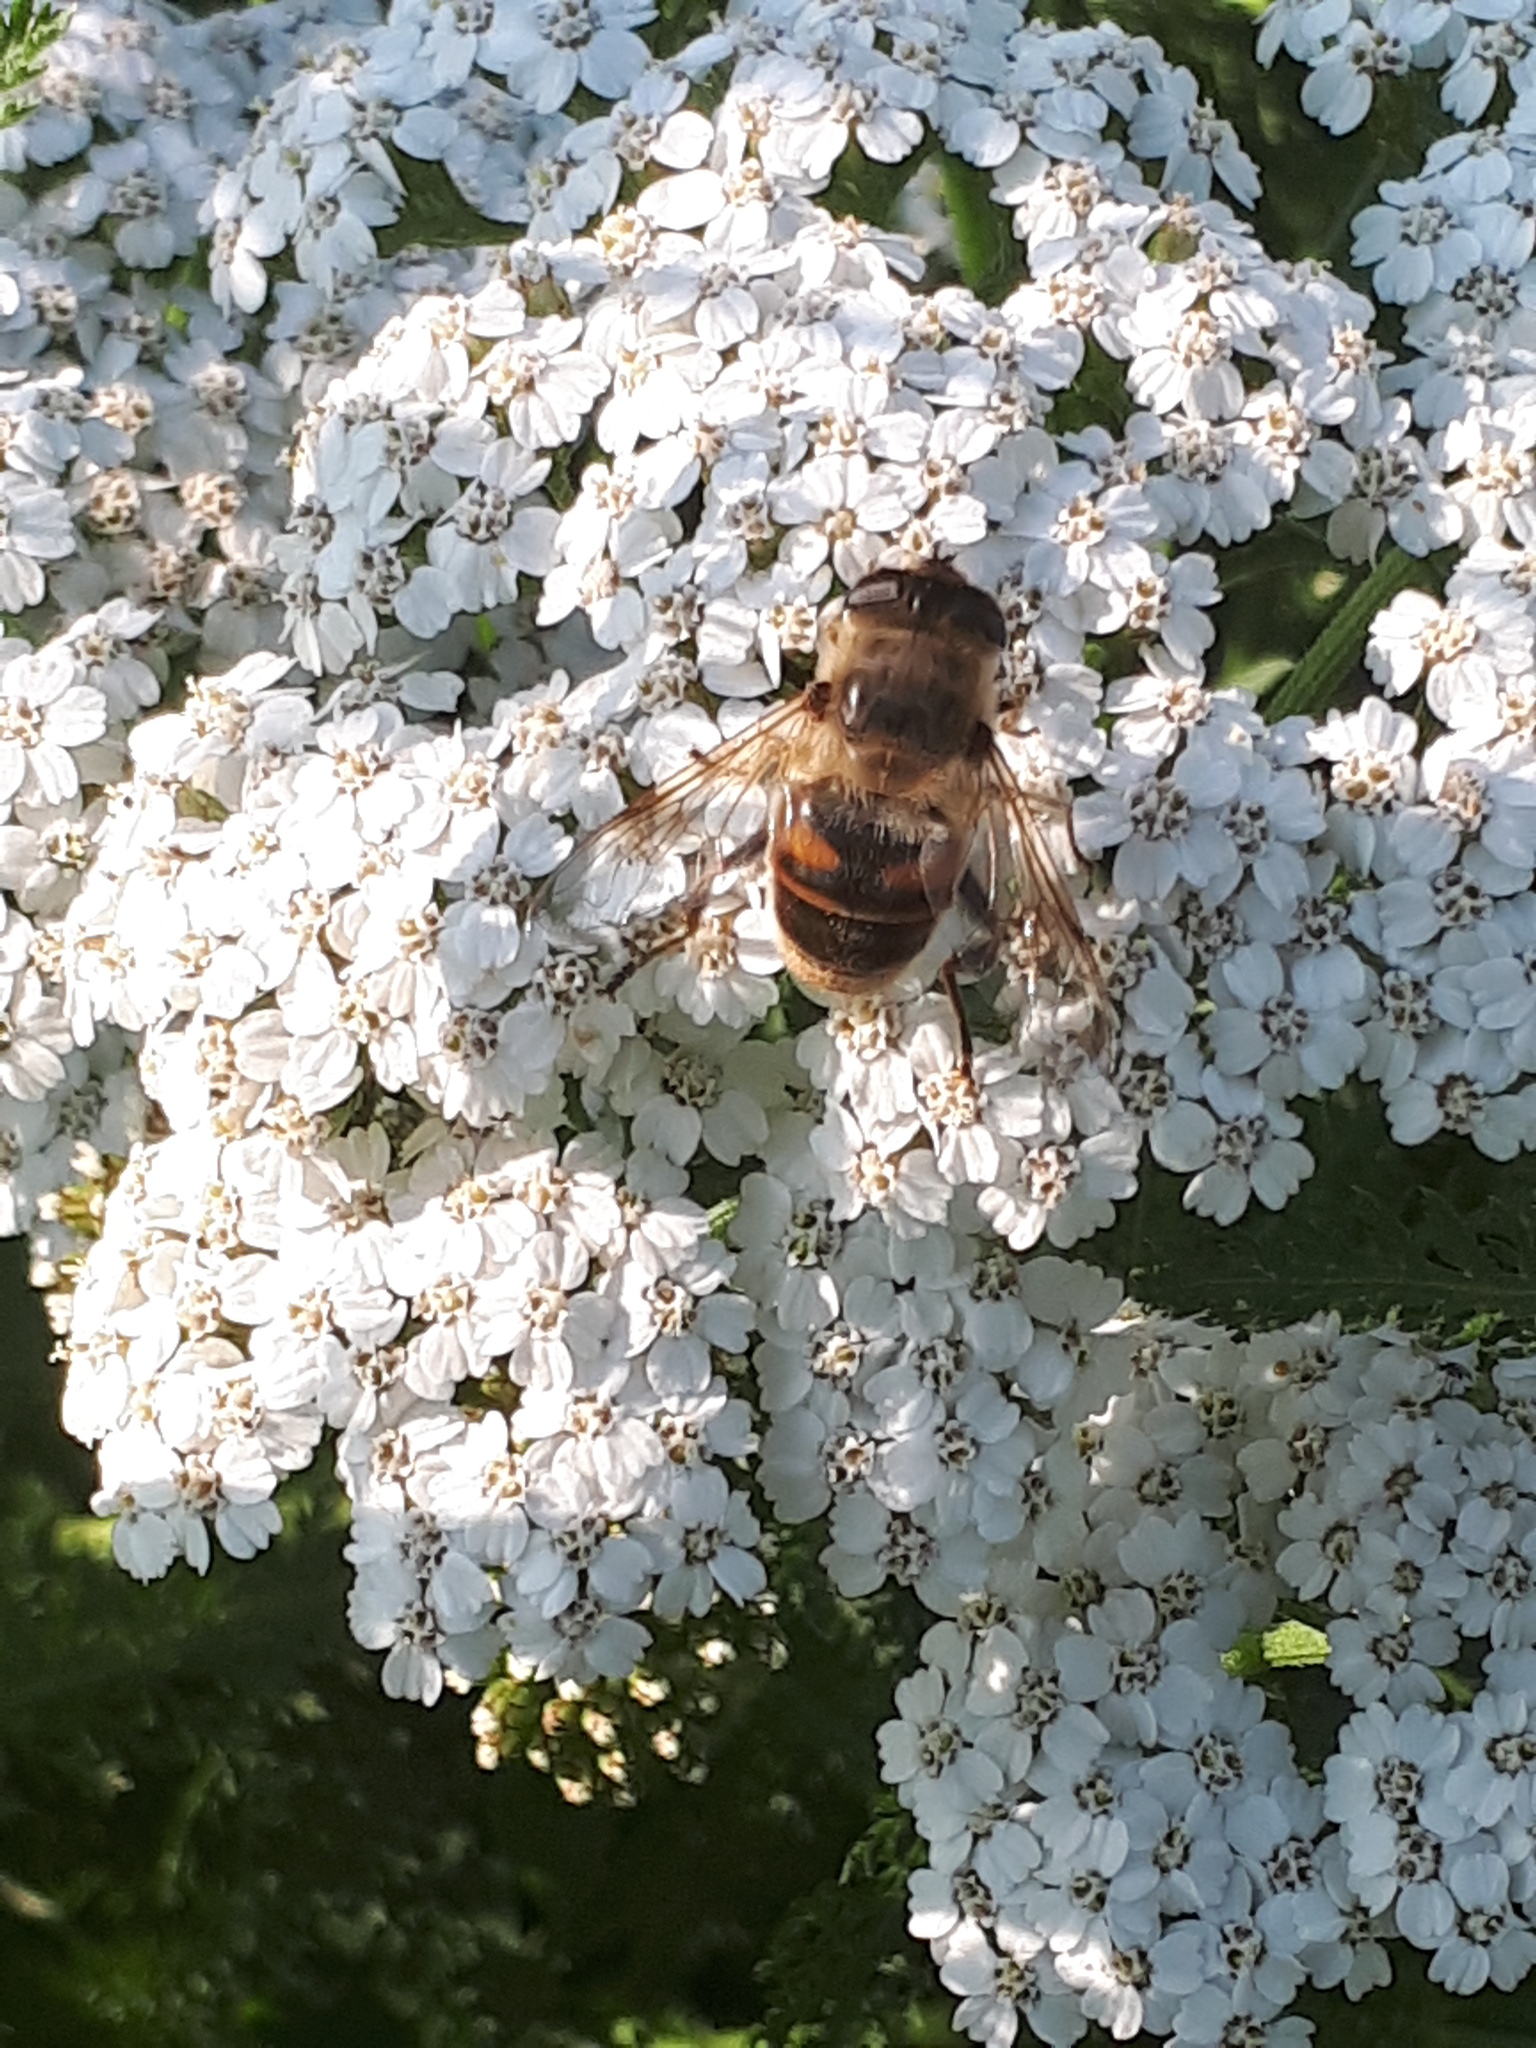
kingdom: Animalia
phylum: Arthropoda
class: Insecta
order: Diptera
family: Syrphidae
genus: Eristalis
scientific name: Eristalis tenax
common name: Drone fly
